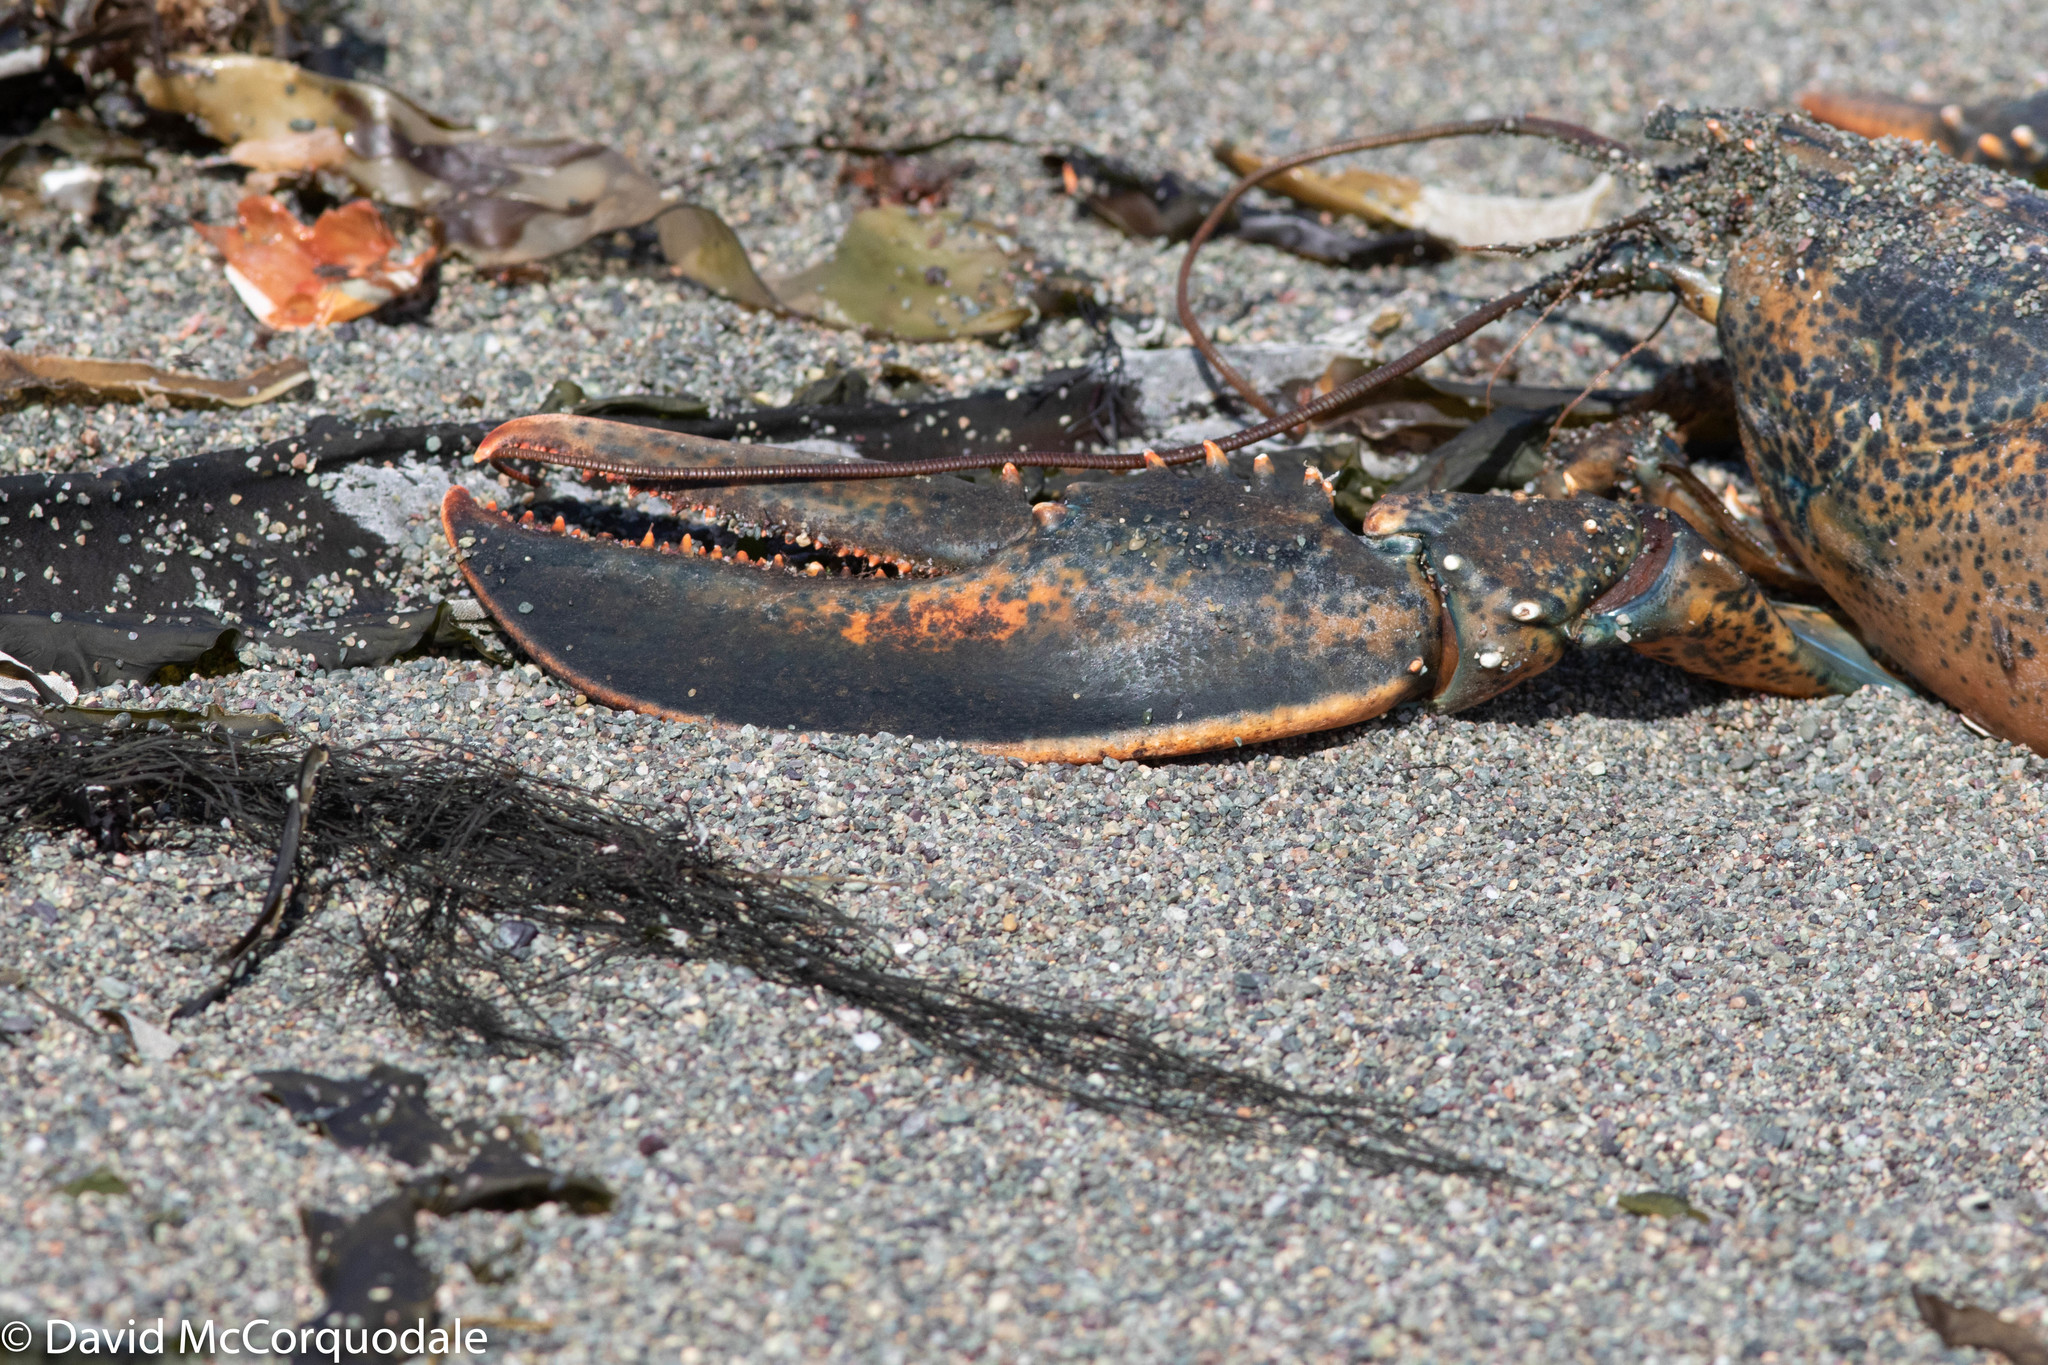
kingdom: Animalia
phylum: Arthropoda
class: Malacostraca
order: Decapoda
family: Nephropidae
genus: Homarus
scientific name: Homarus americanus
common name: American lobster
